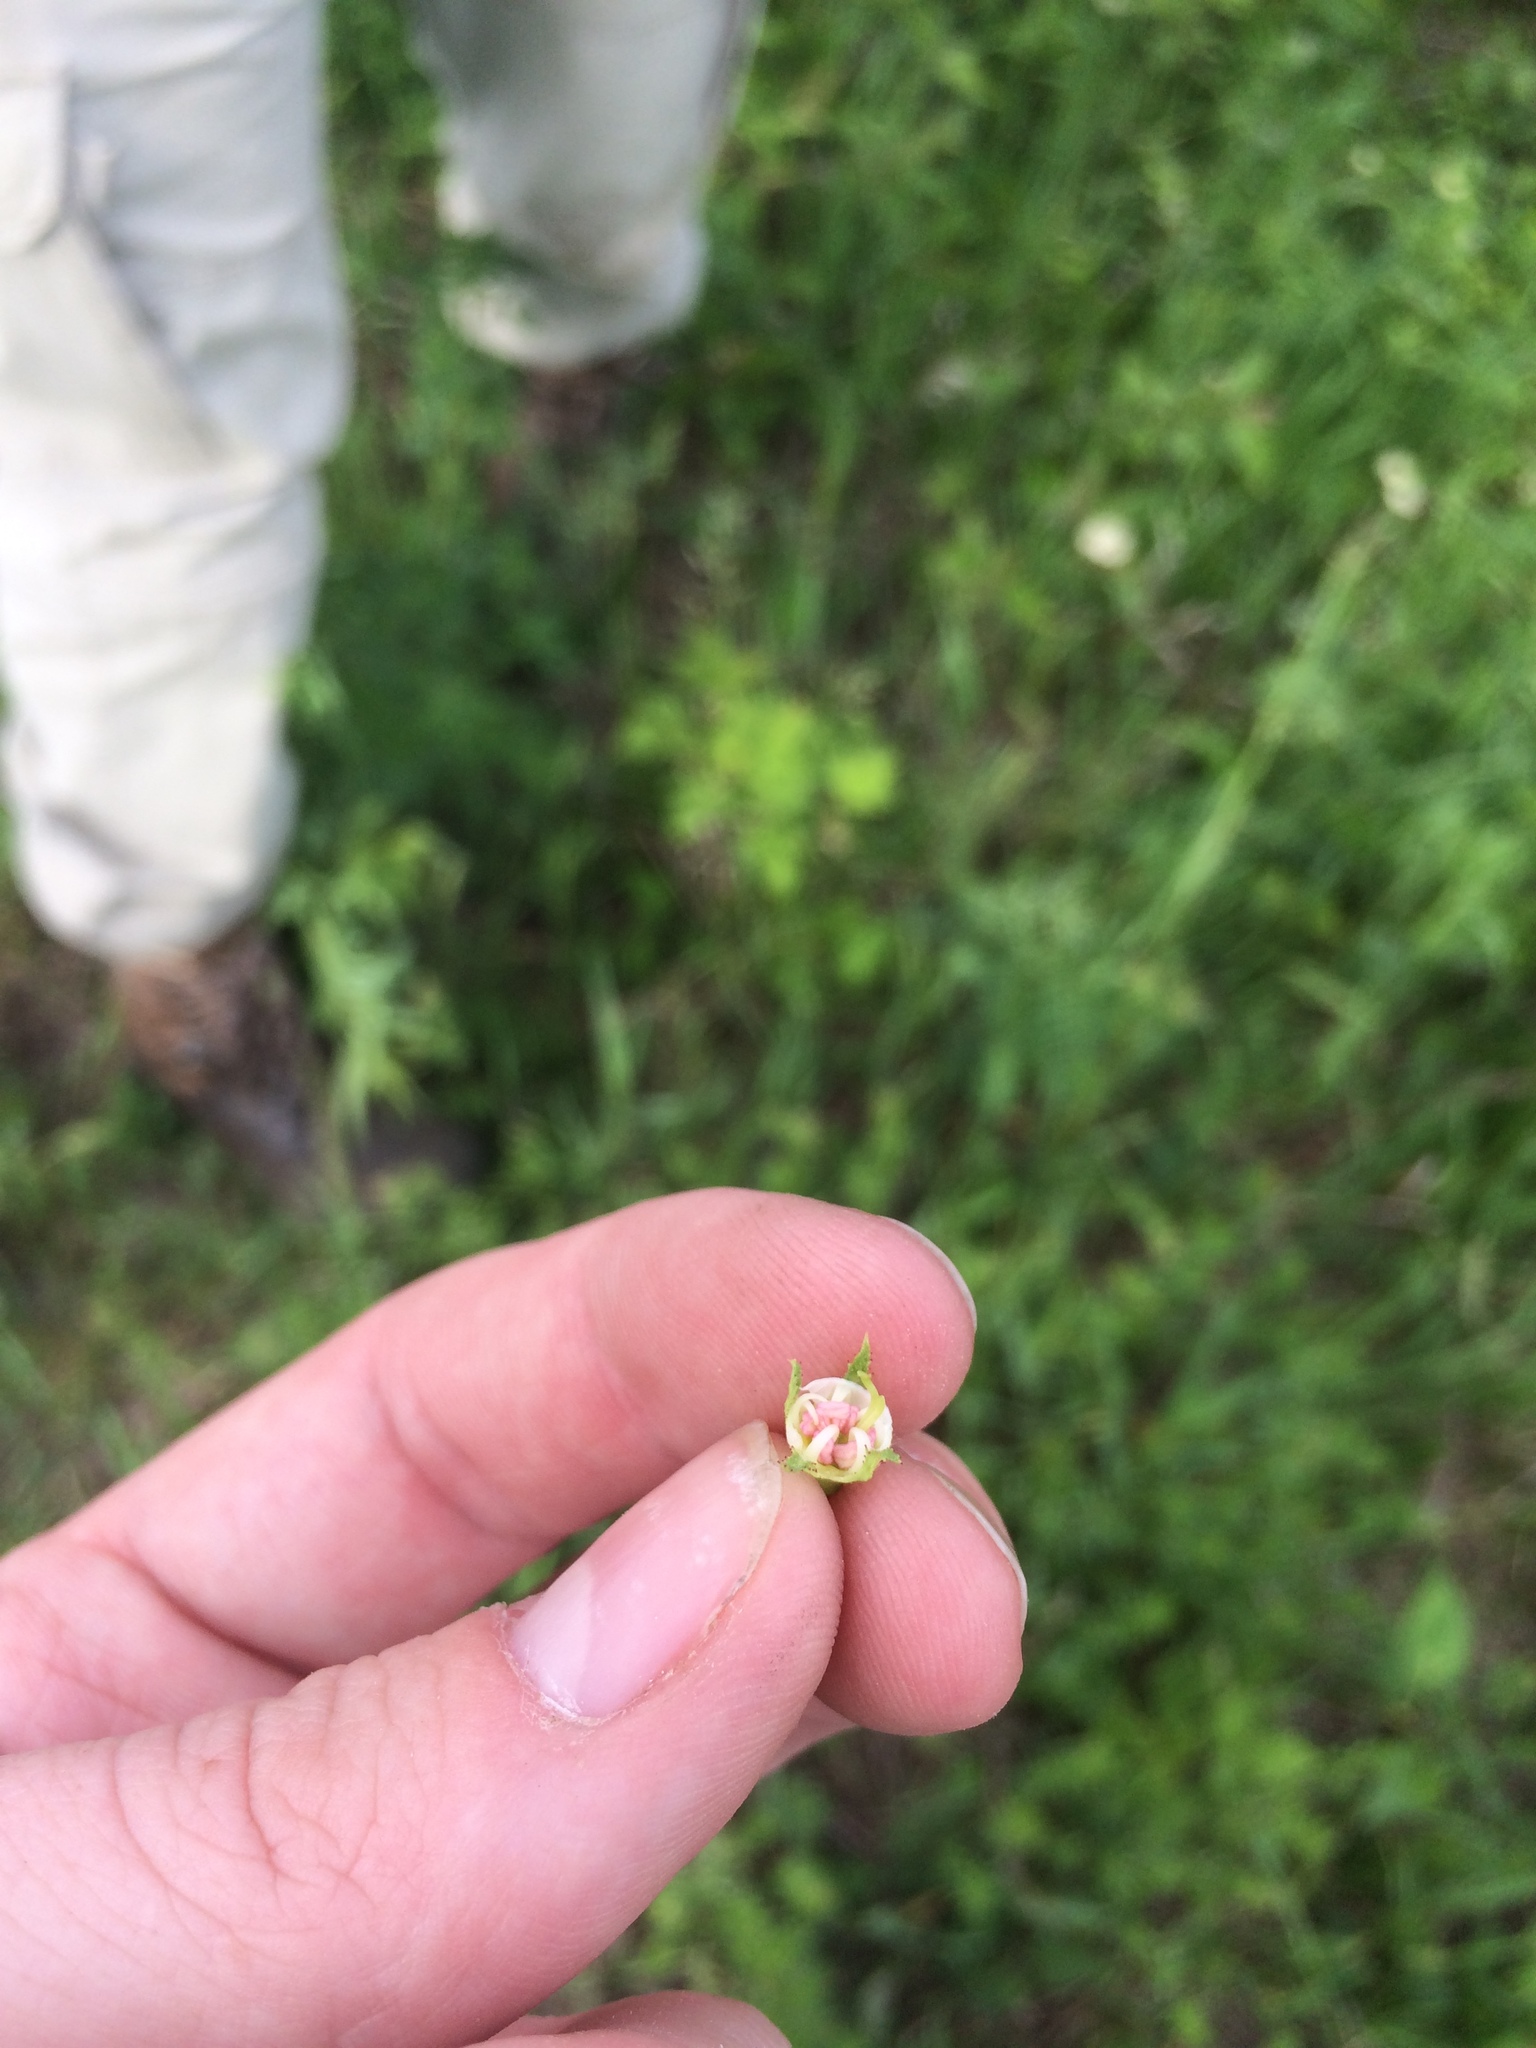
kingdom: Plantae
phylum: Tracheophyta
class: Magnoliopsida
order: Rosales
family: Rosaceae
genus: Crataegus
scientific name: Crataegus macracantha
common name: Large-thorn hawthorn
